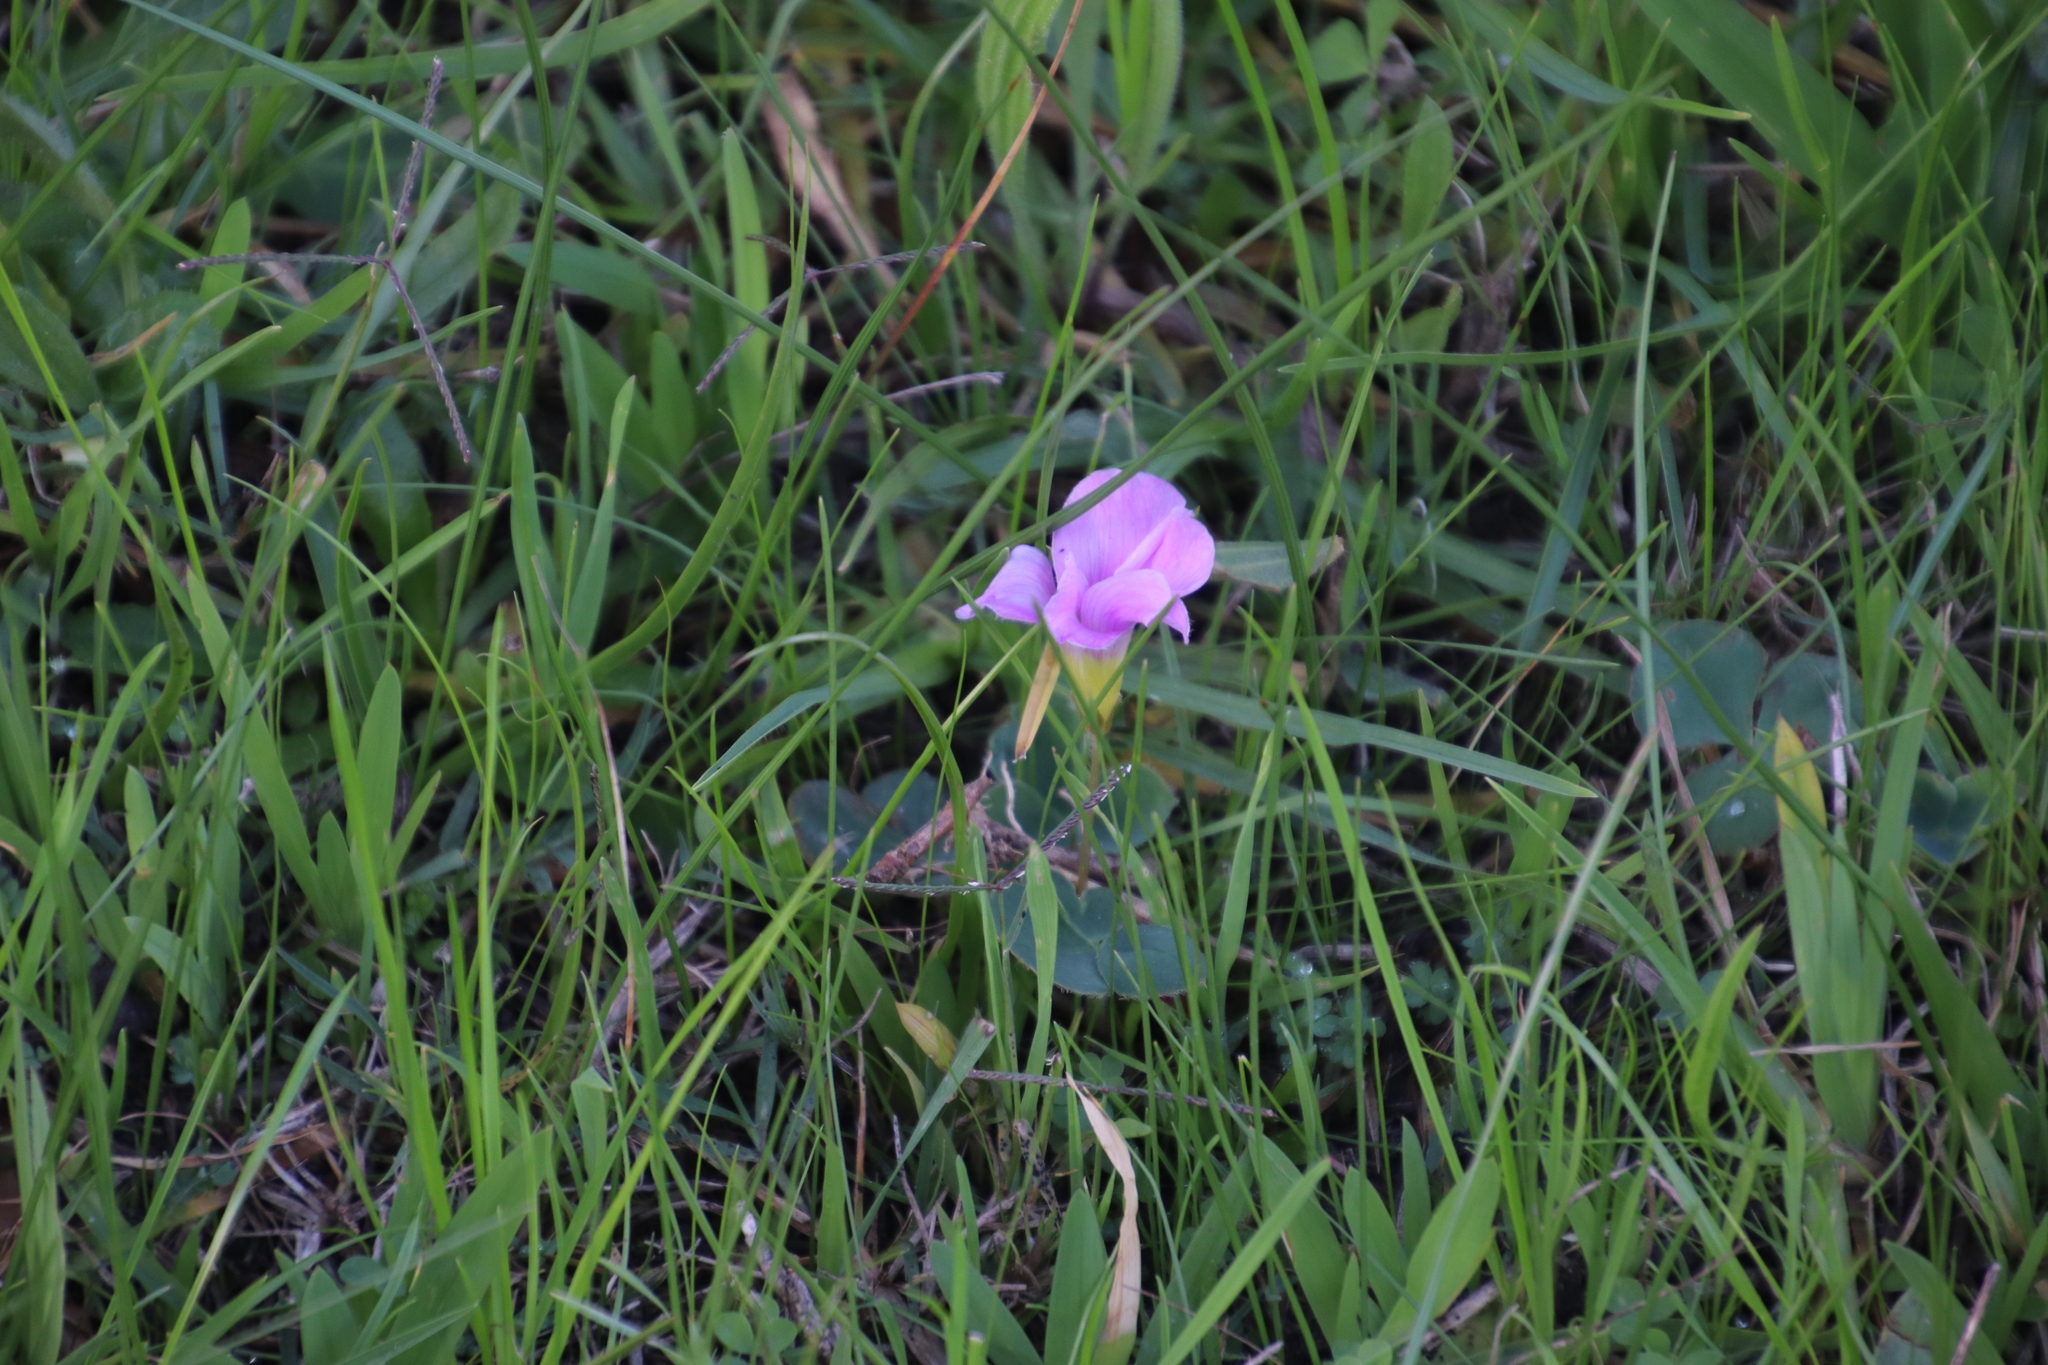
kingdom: Plantae
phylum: Tracheophyta
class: Magnoliopsida
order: Oxalidales
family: Oxalidaceae
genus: Oxalis
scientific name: Oxalis purpurea
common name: Purple woodsorrel
